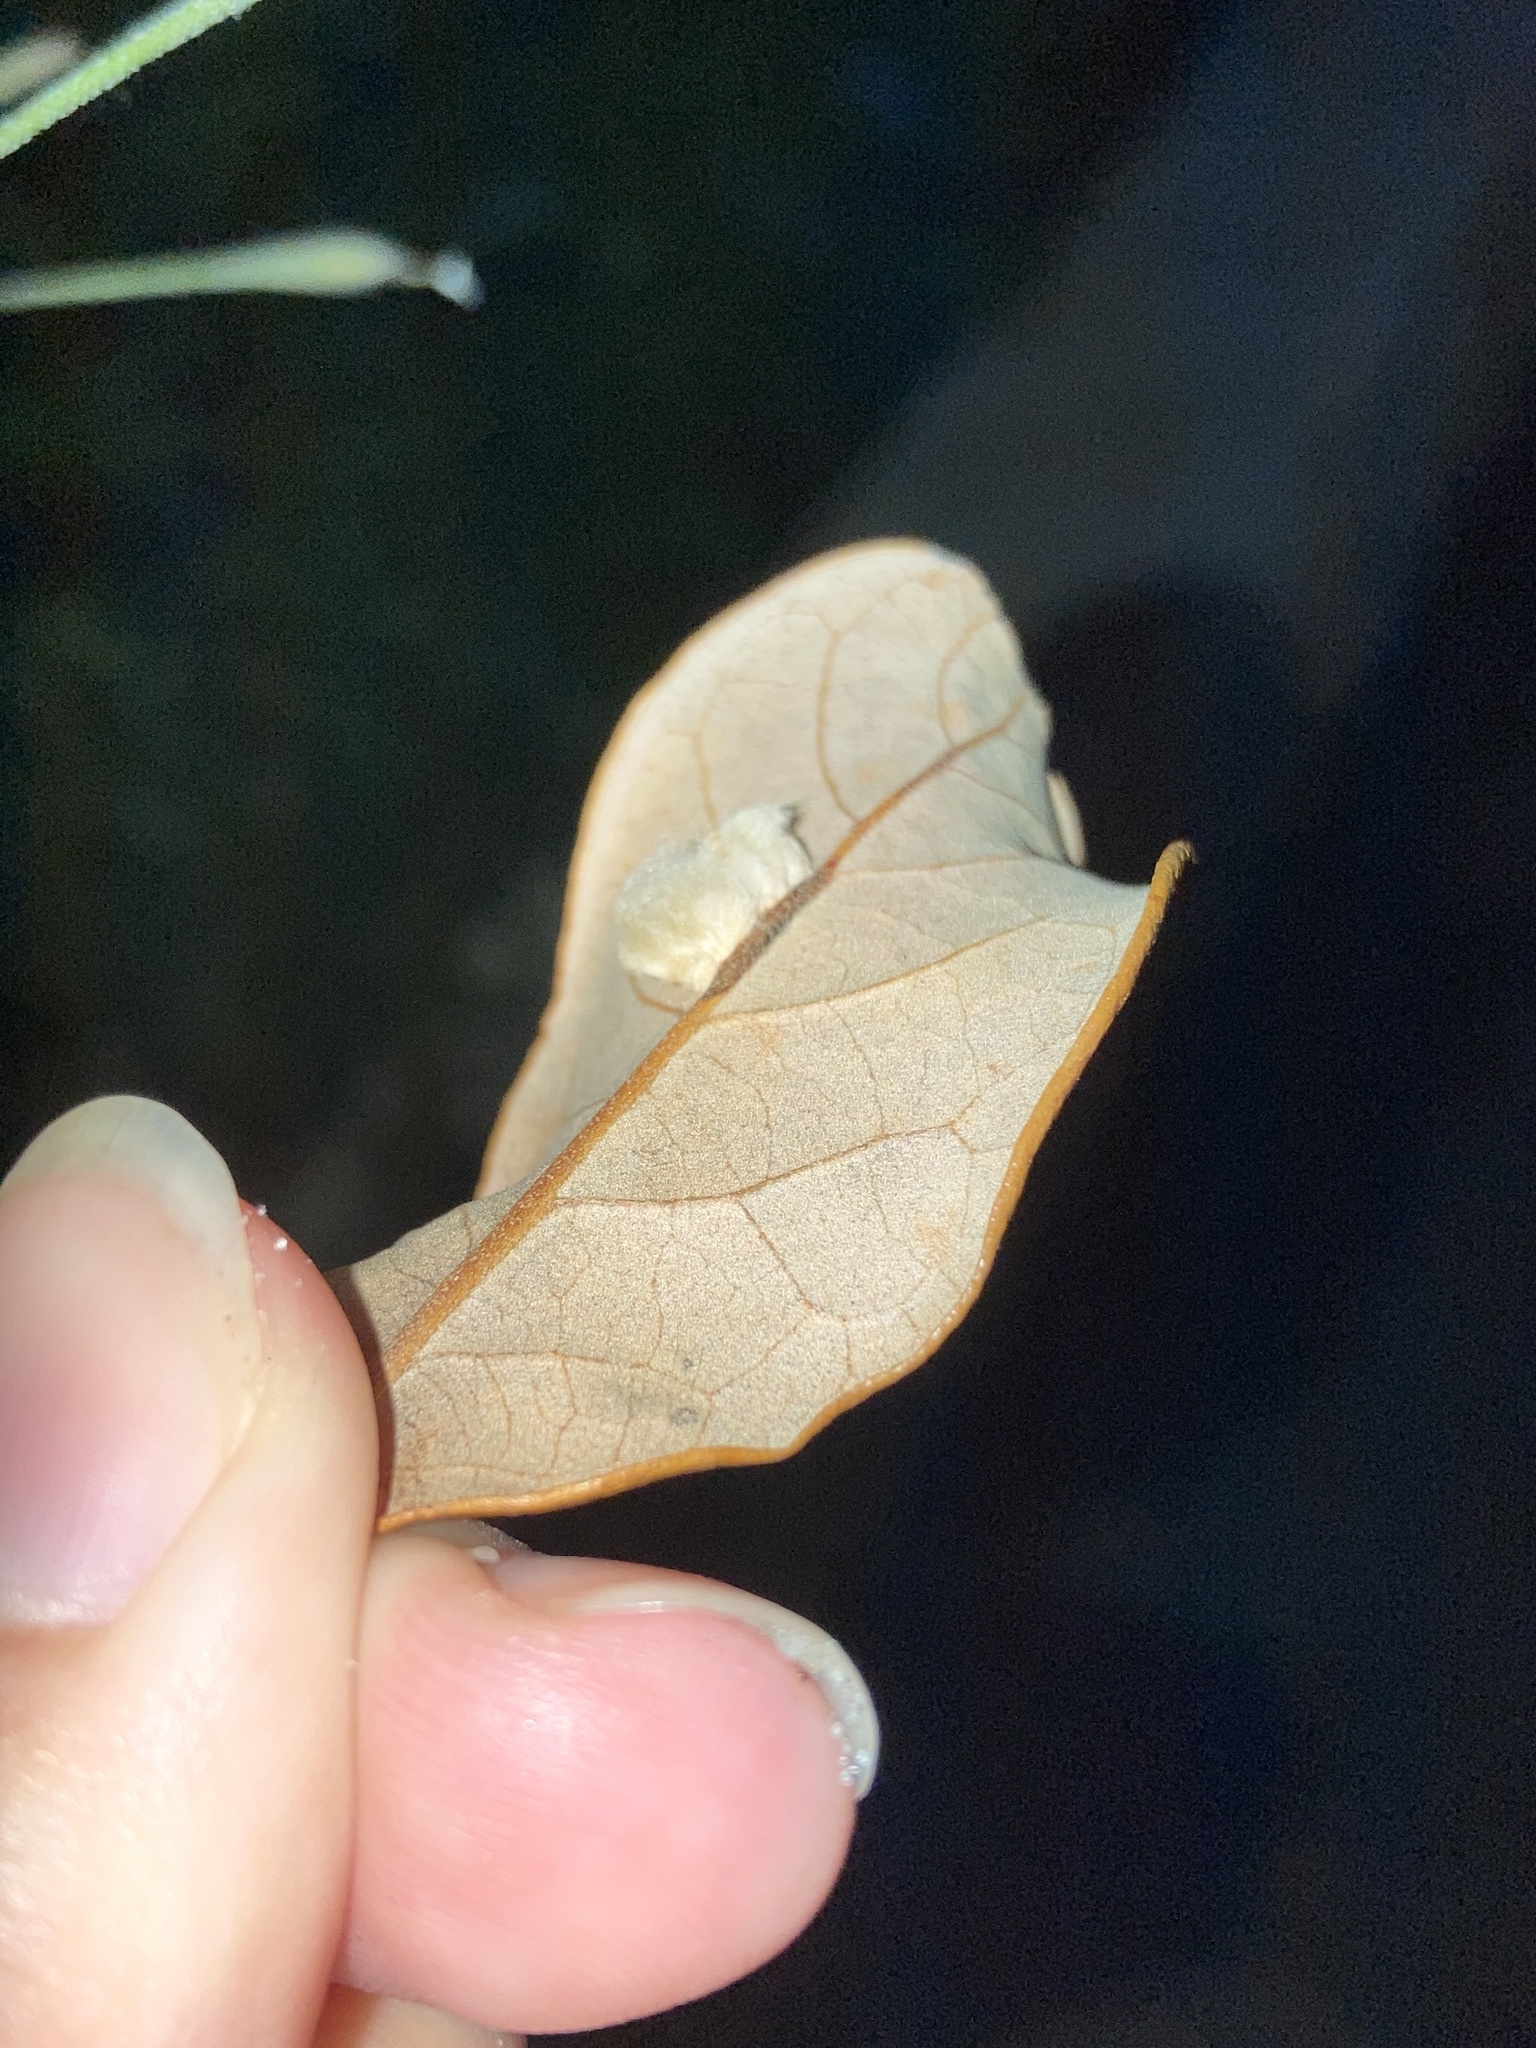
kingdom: Animalia
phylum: Arthropoda
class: Insecta
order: Hymenoptera
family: Cynipidae
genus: Andricus
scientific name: Andricus Druon quercuslanigerum
